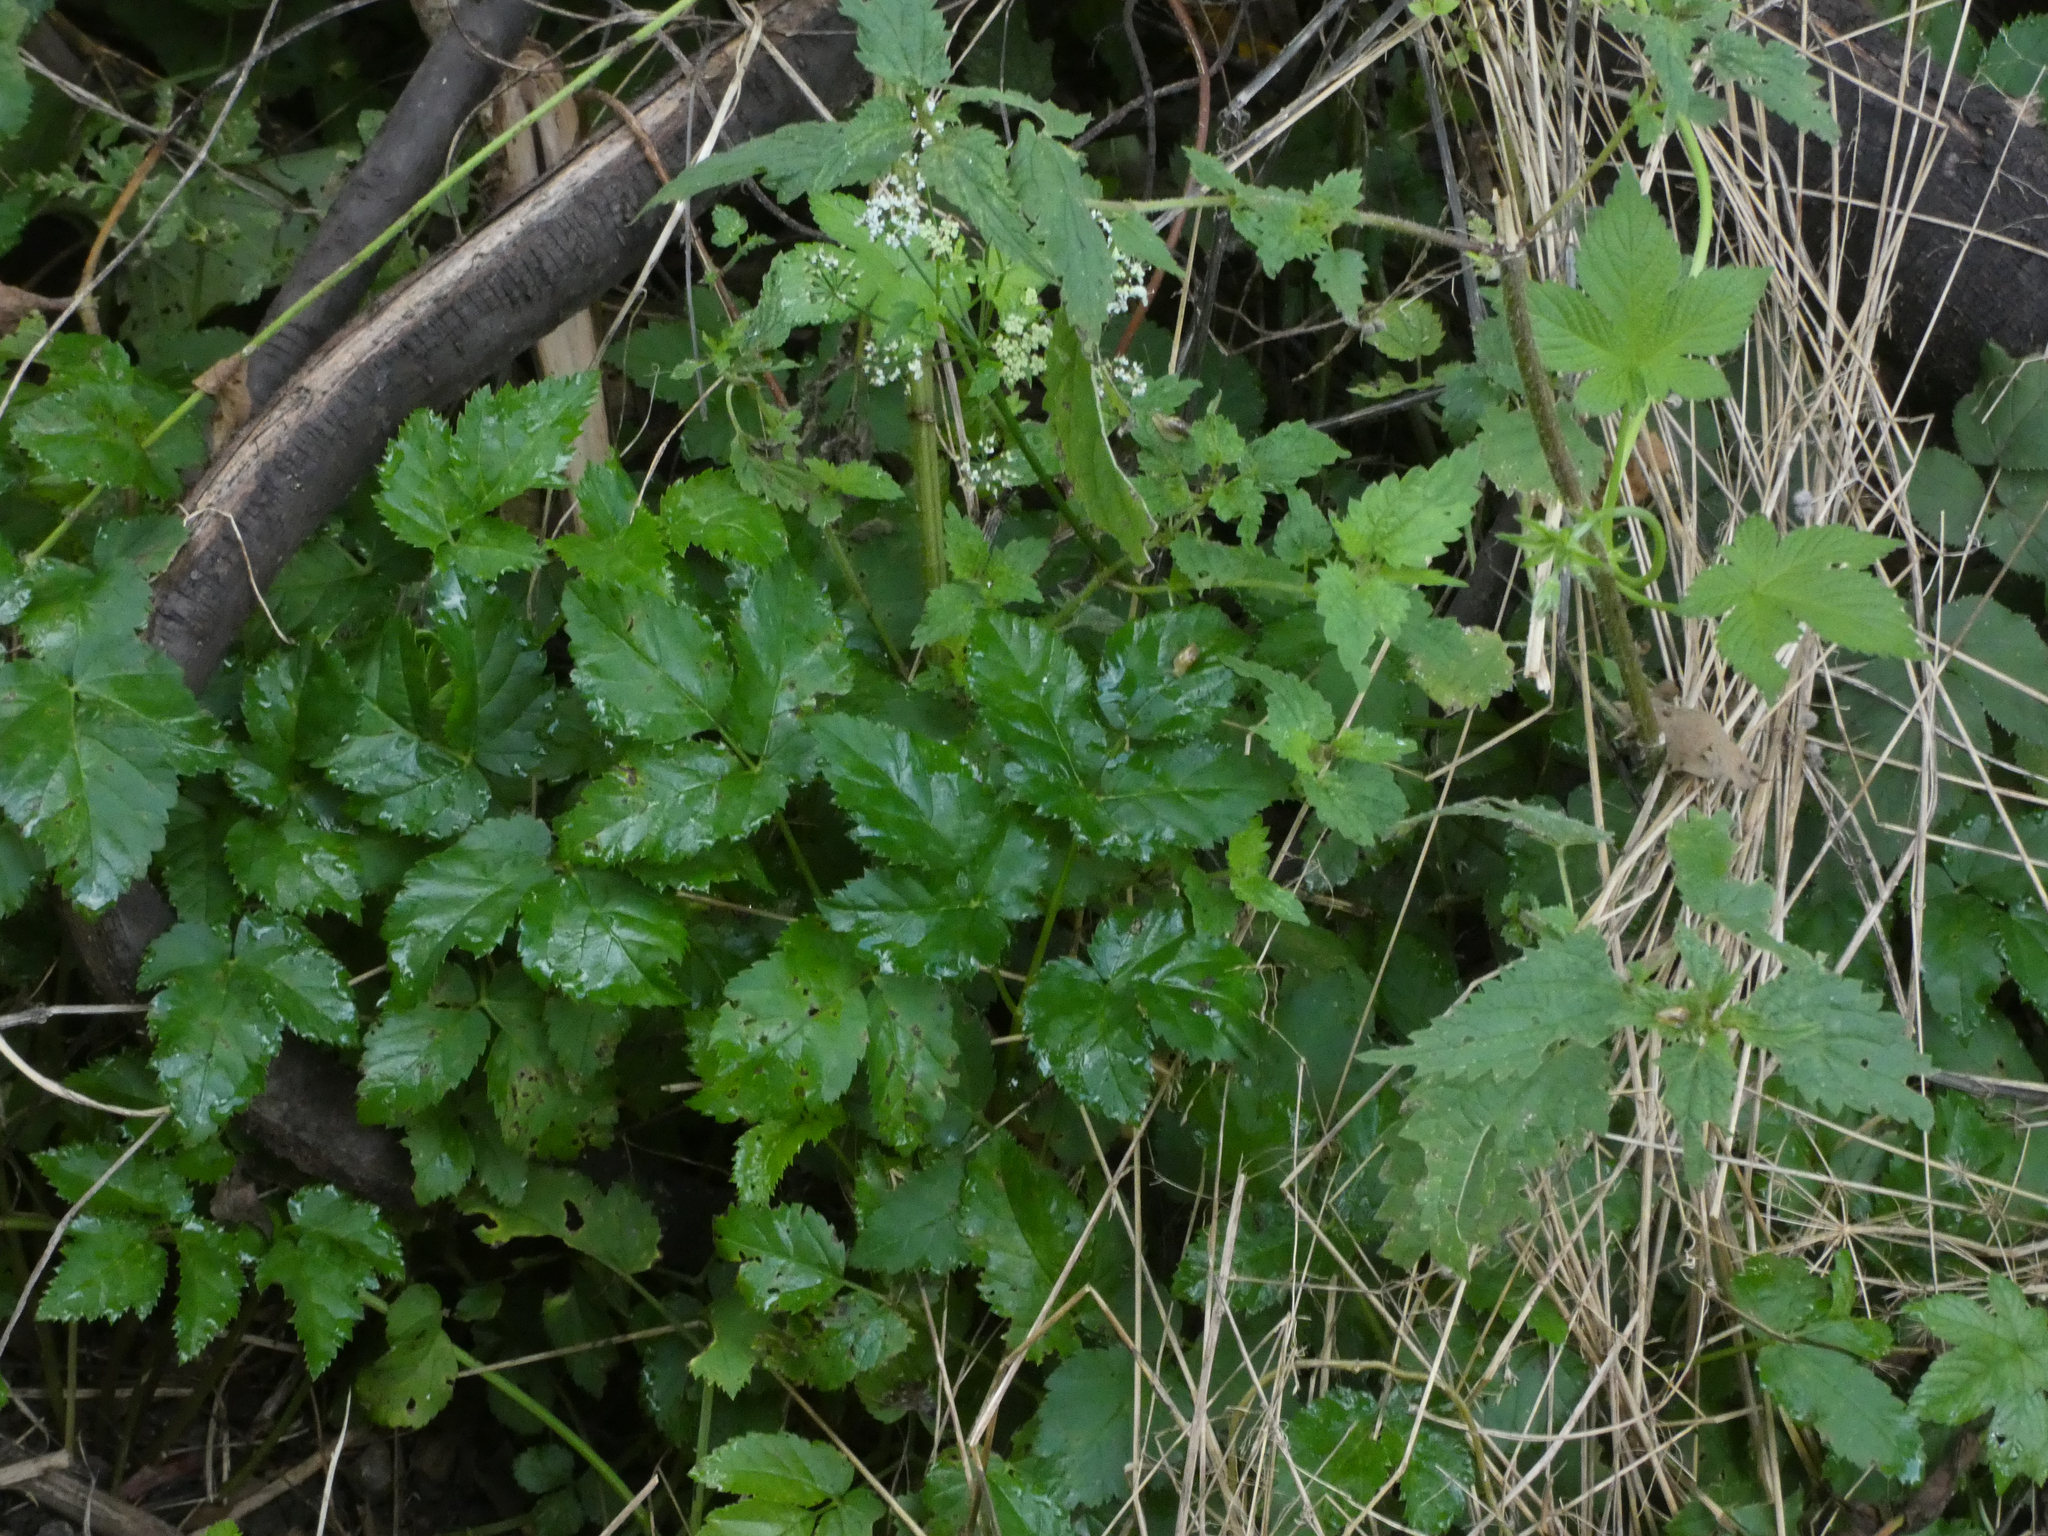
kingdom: Plantae
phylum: Tracheophyta
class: Magnoliopsida
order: Apiales
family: Apiaceae
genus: Aegopodium
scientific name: Aegopodium podagraria
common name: Ground-elder
